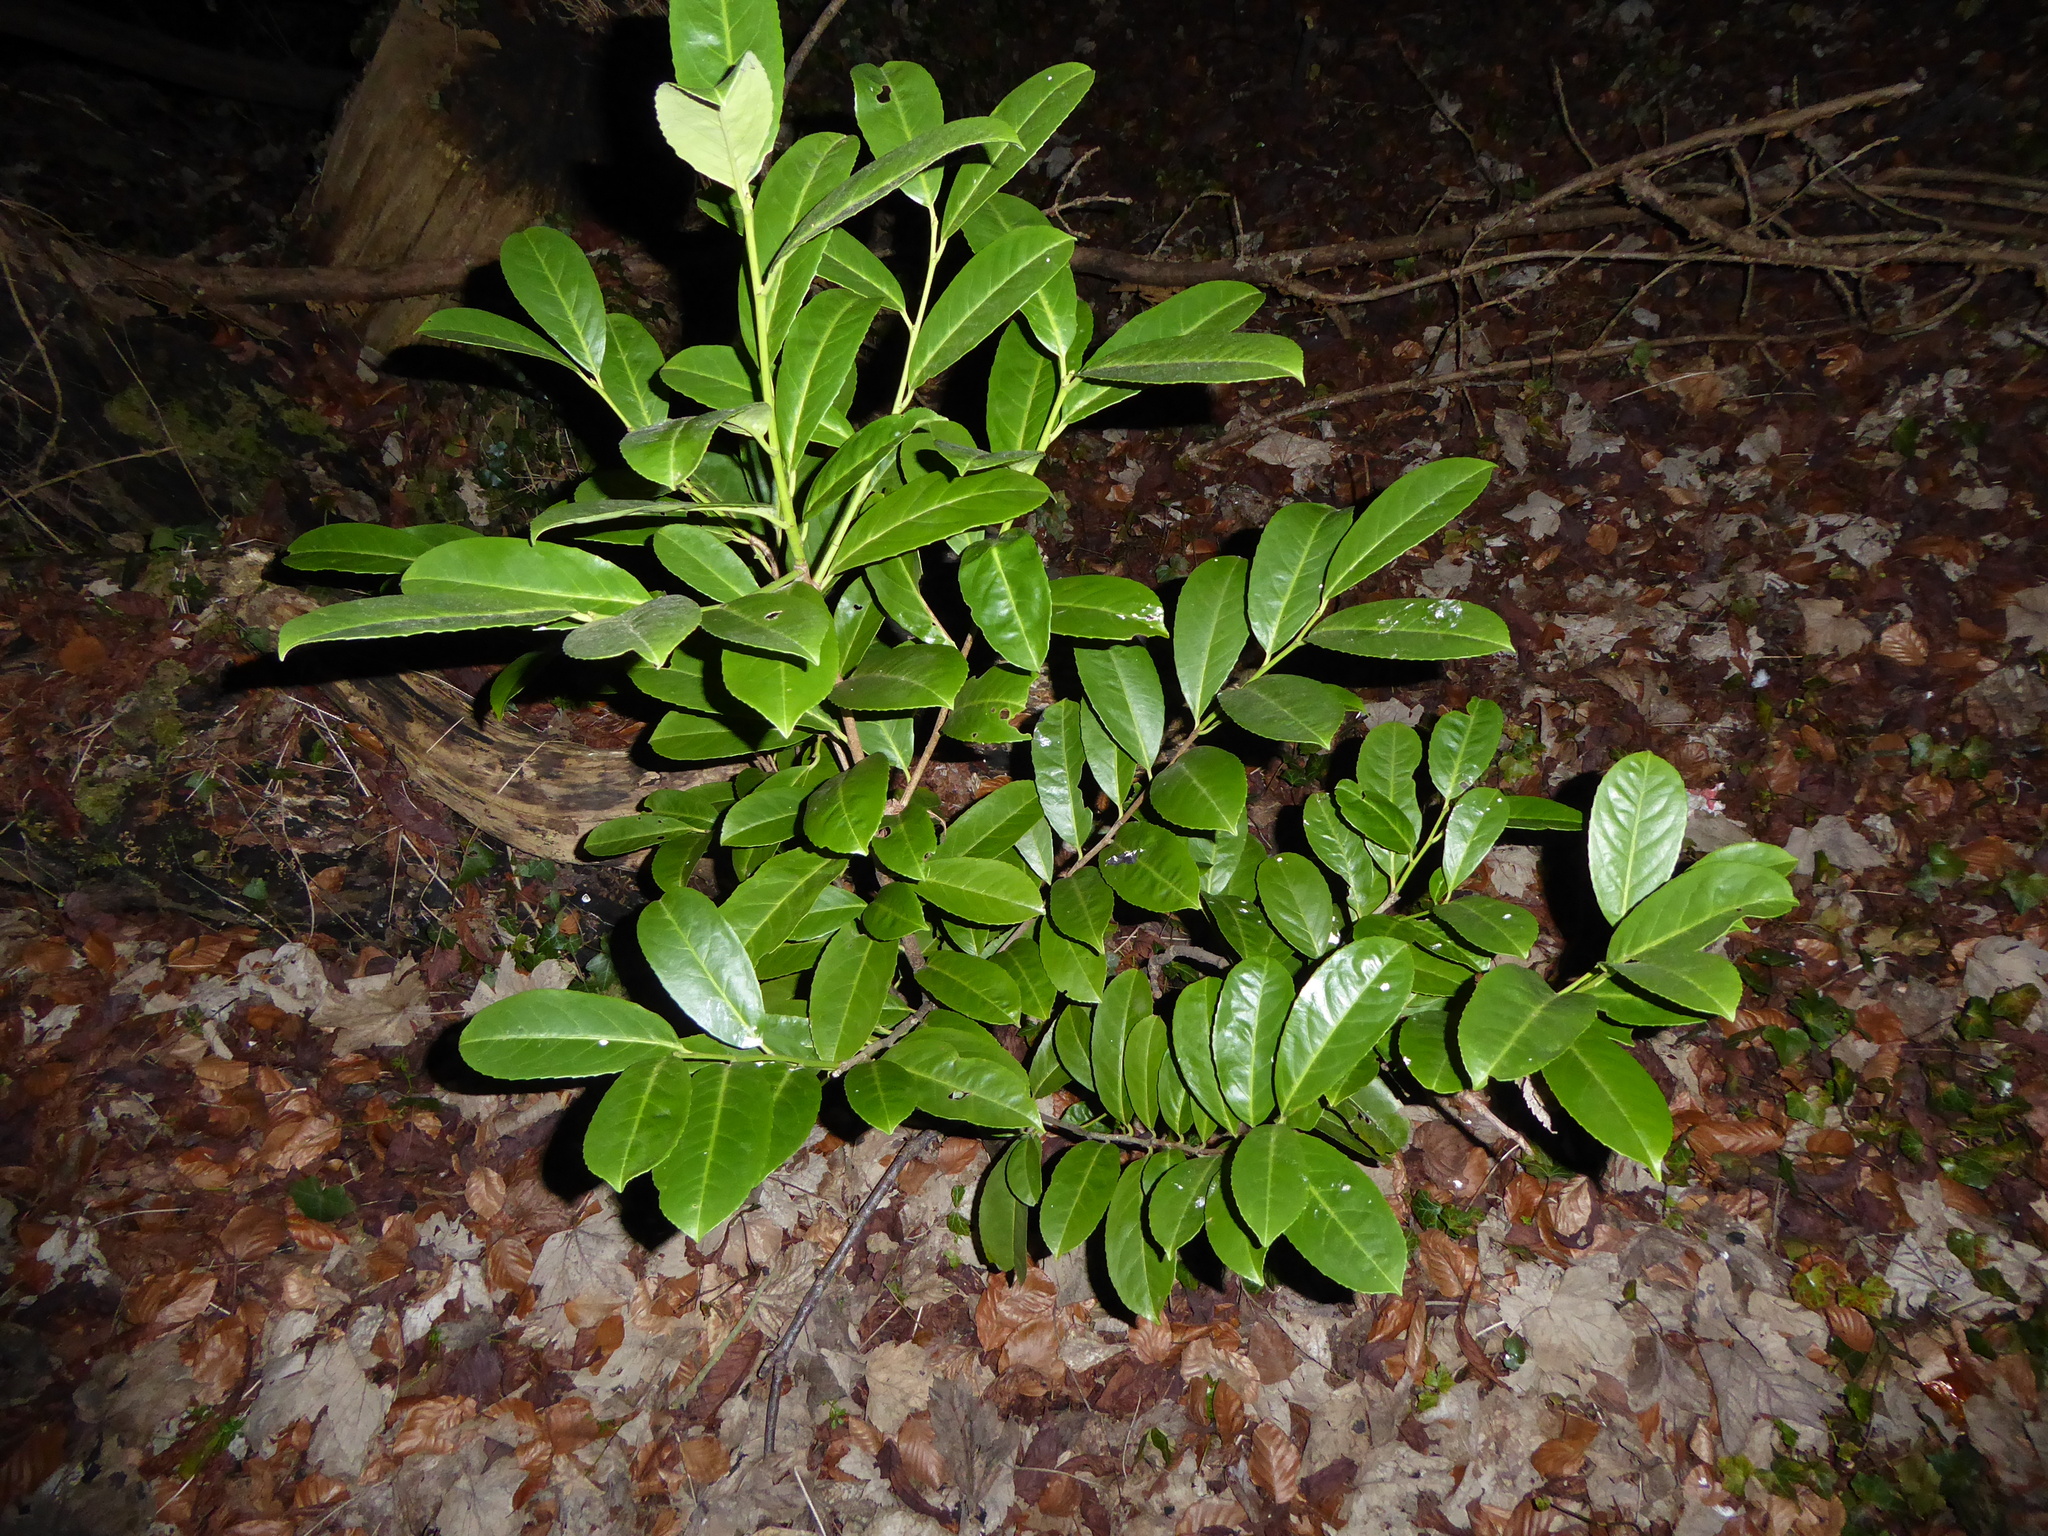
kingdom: Plantae
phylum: Tracheophyta
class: Magnoliopsida
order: Rosales
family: Rosaceae
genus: Prunus
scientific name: Prunus laurocerasus
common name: Cherry laurel
